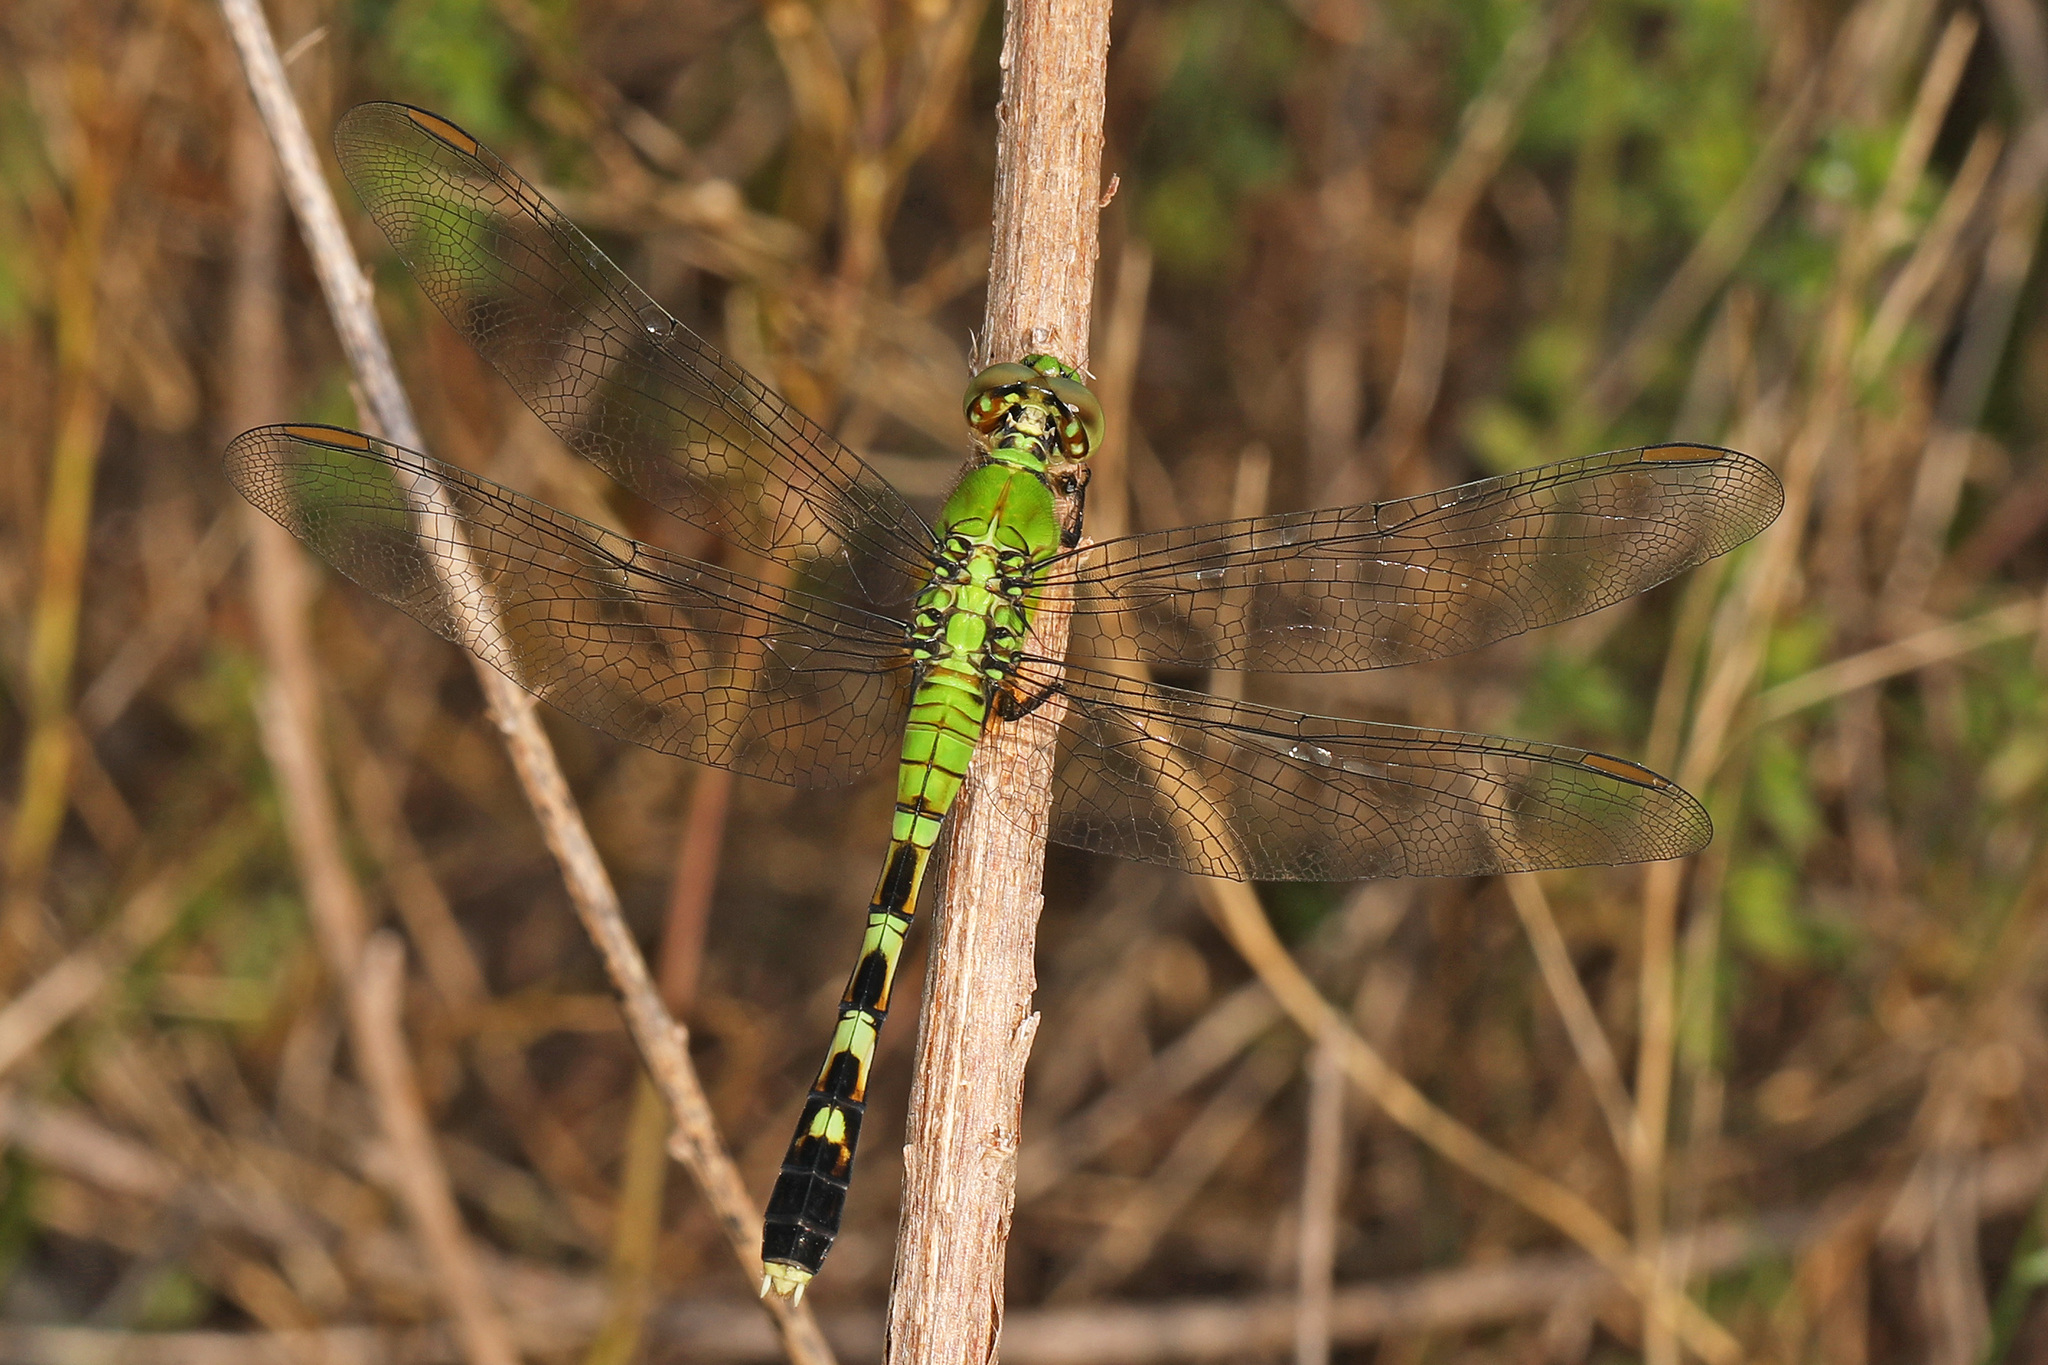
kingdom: Animalia
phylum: Arthropoda
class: Insecta
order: Odonata
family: Libellulidae
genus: Erythemis
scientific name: Erythemis simplicicollis
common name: Eastern pondhawk
